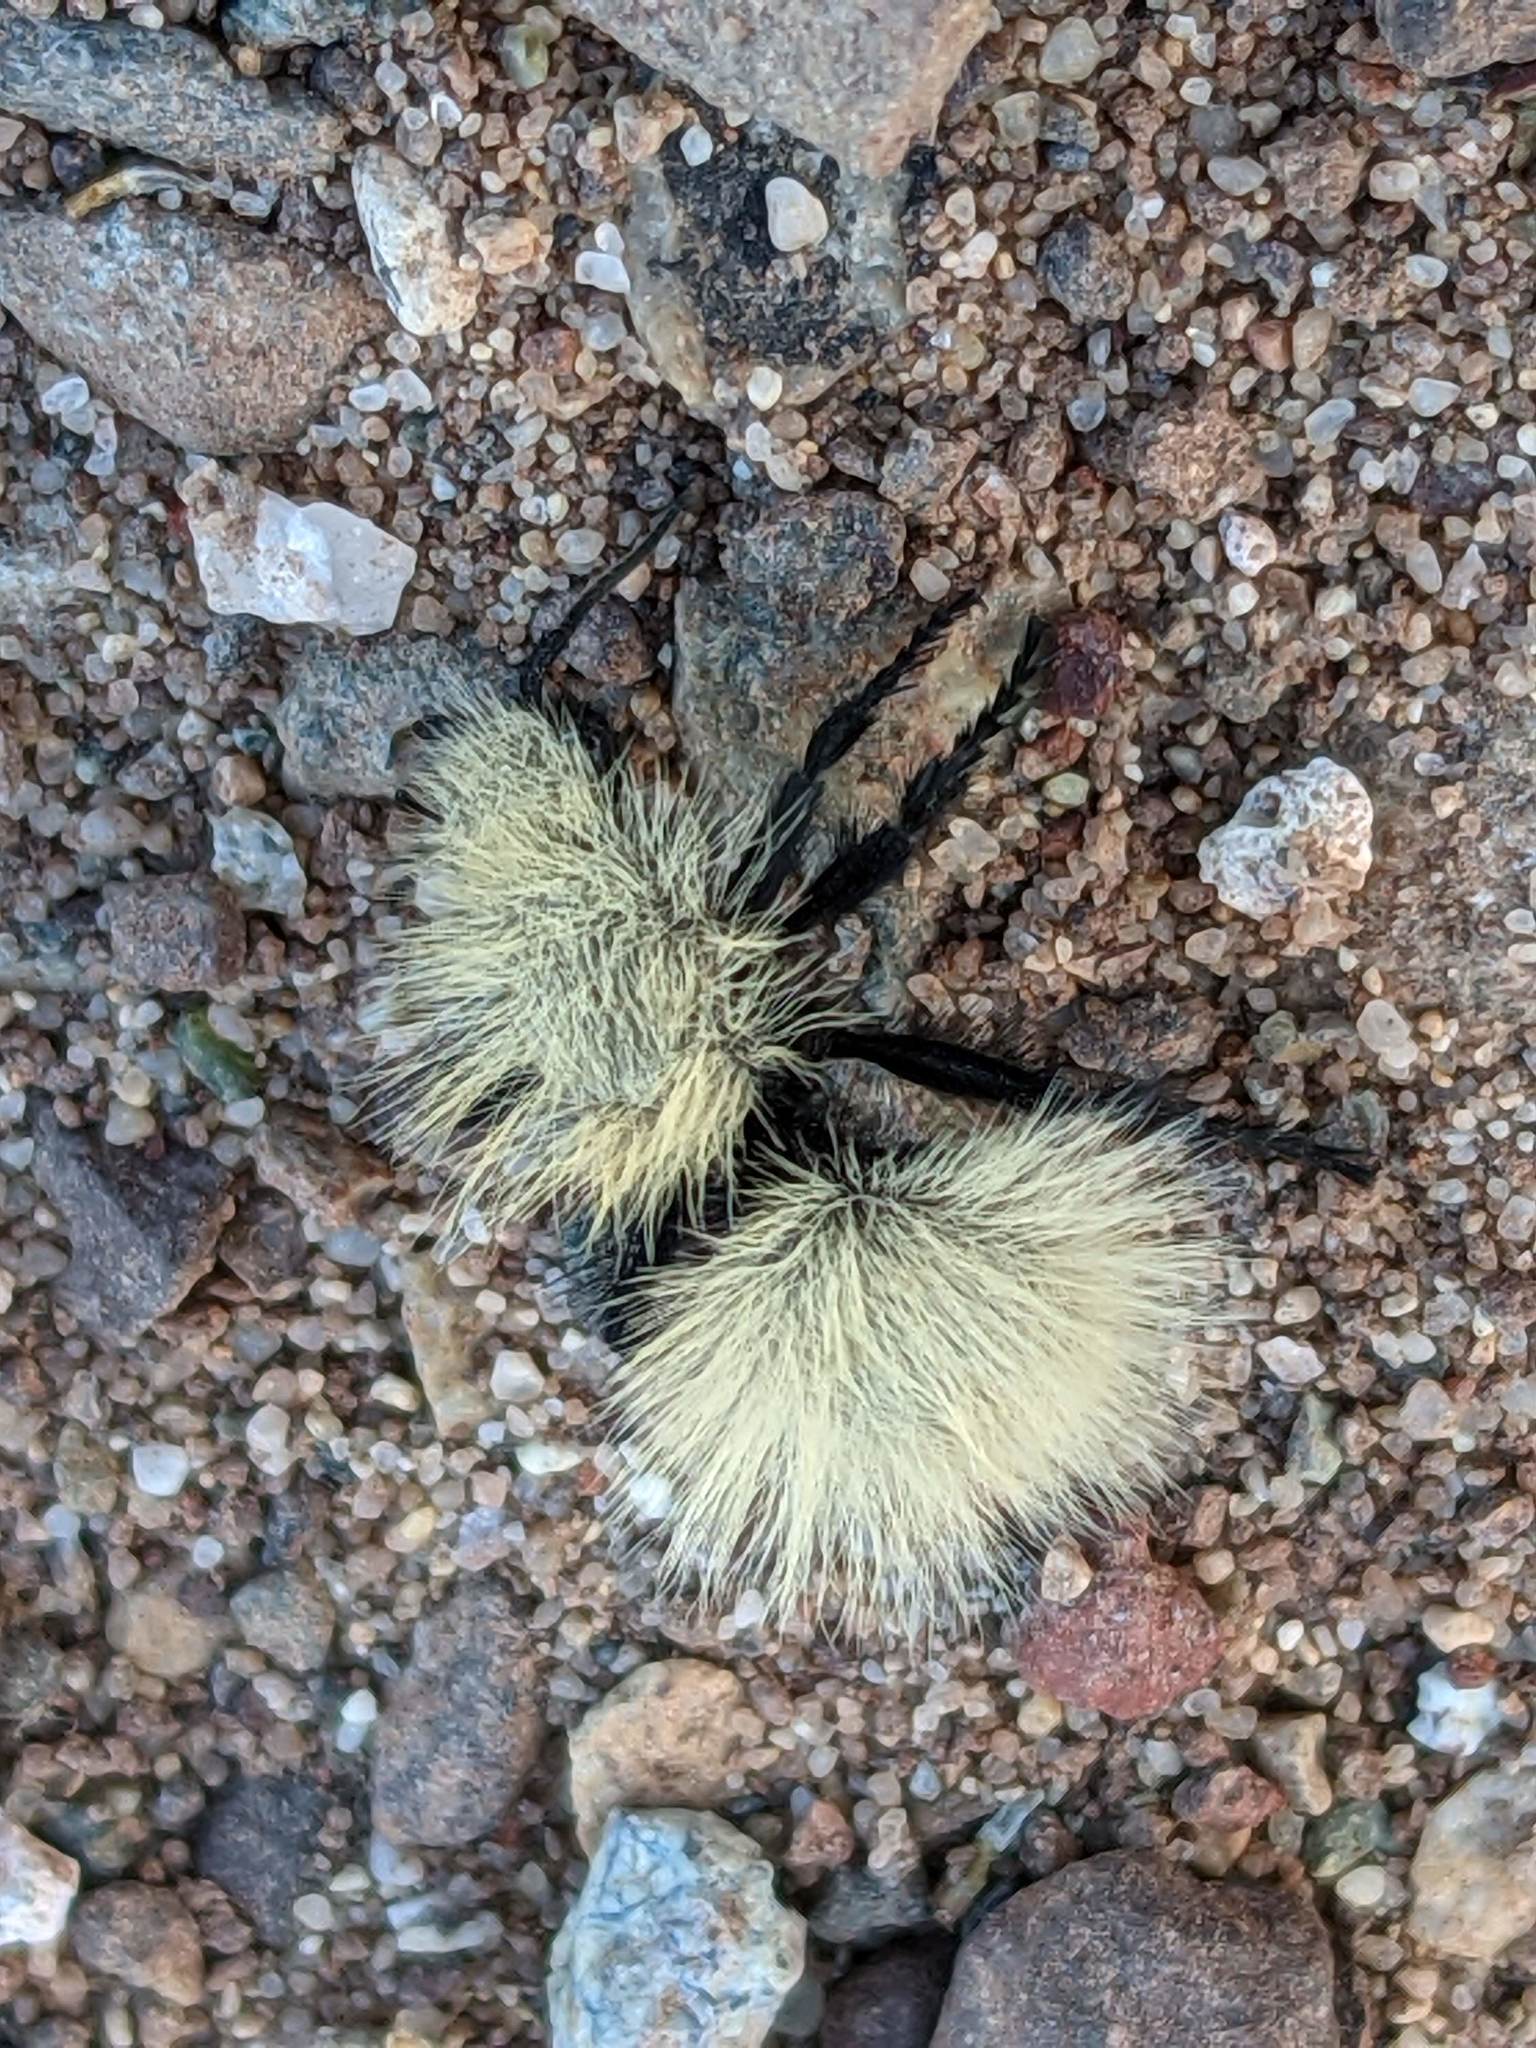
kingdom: Animalia
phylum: Arthropoda
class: Insecta
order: Hymenoptera
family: Mutillidae
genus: Dasymutilla
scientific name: Dasymutilla
